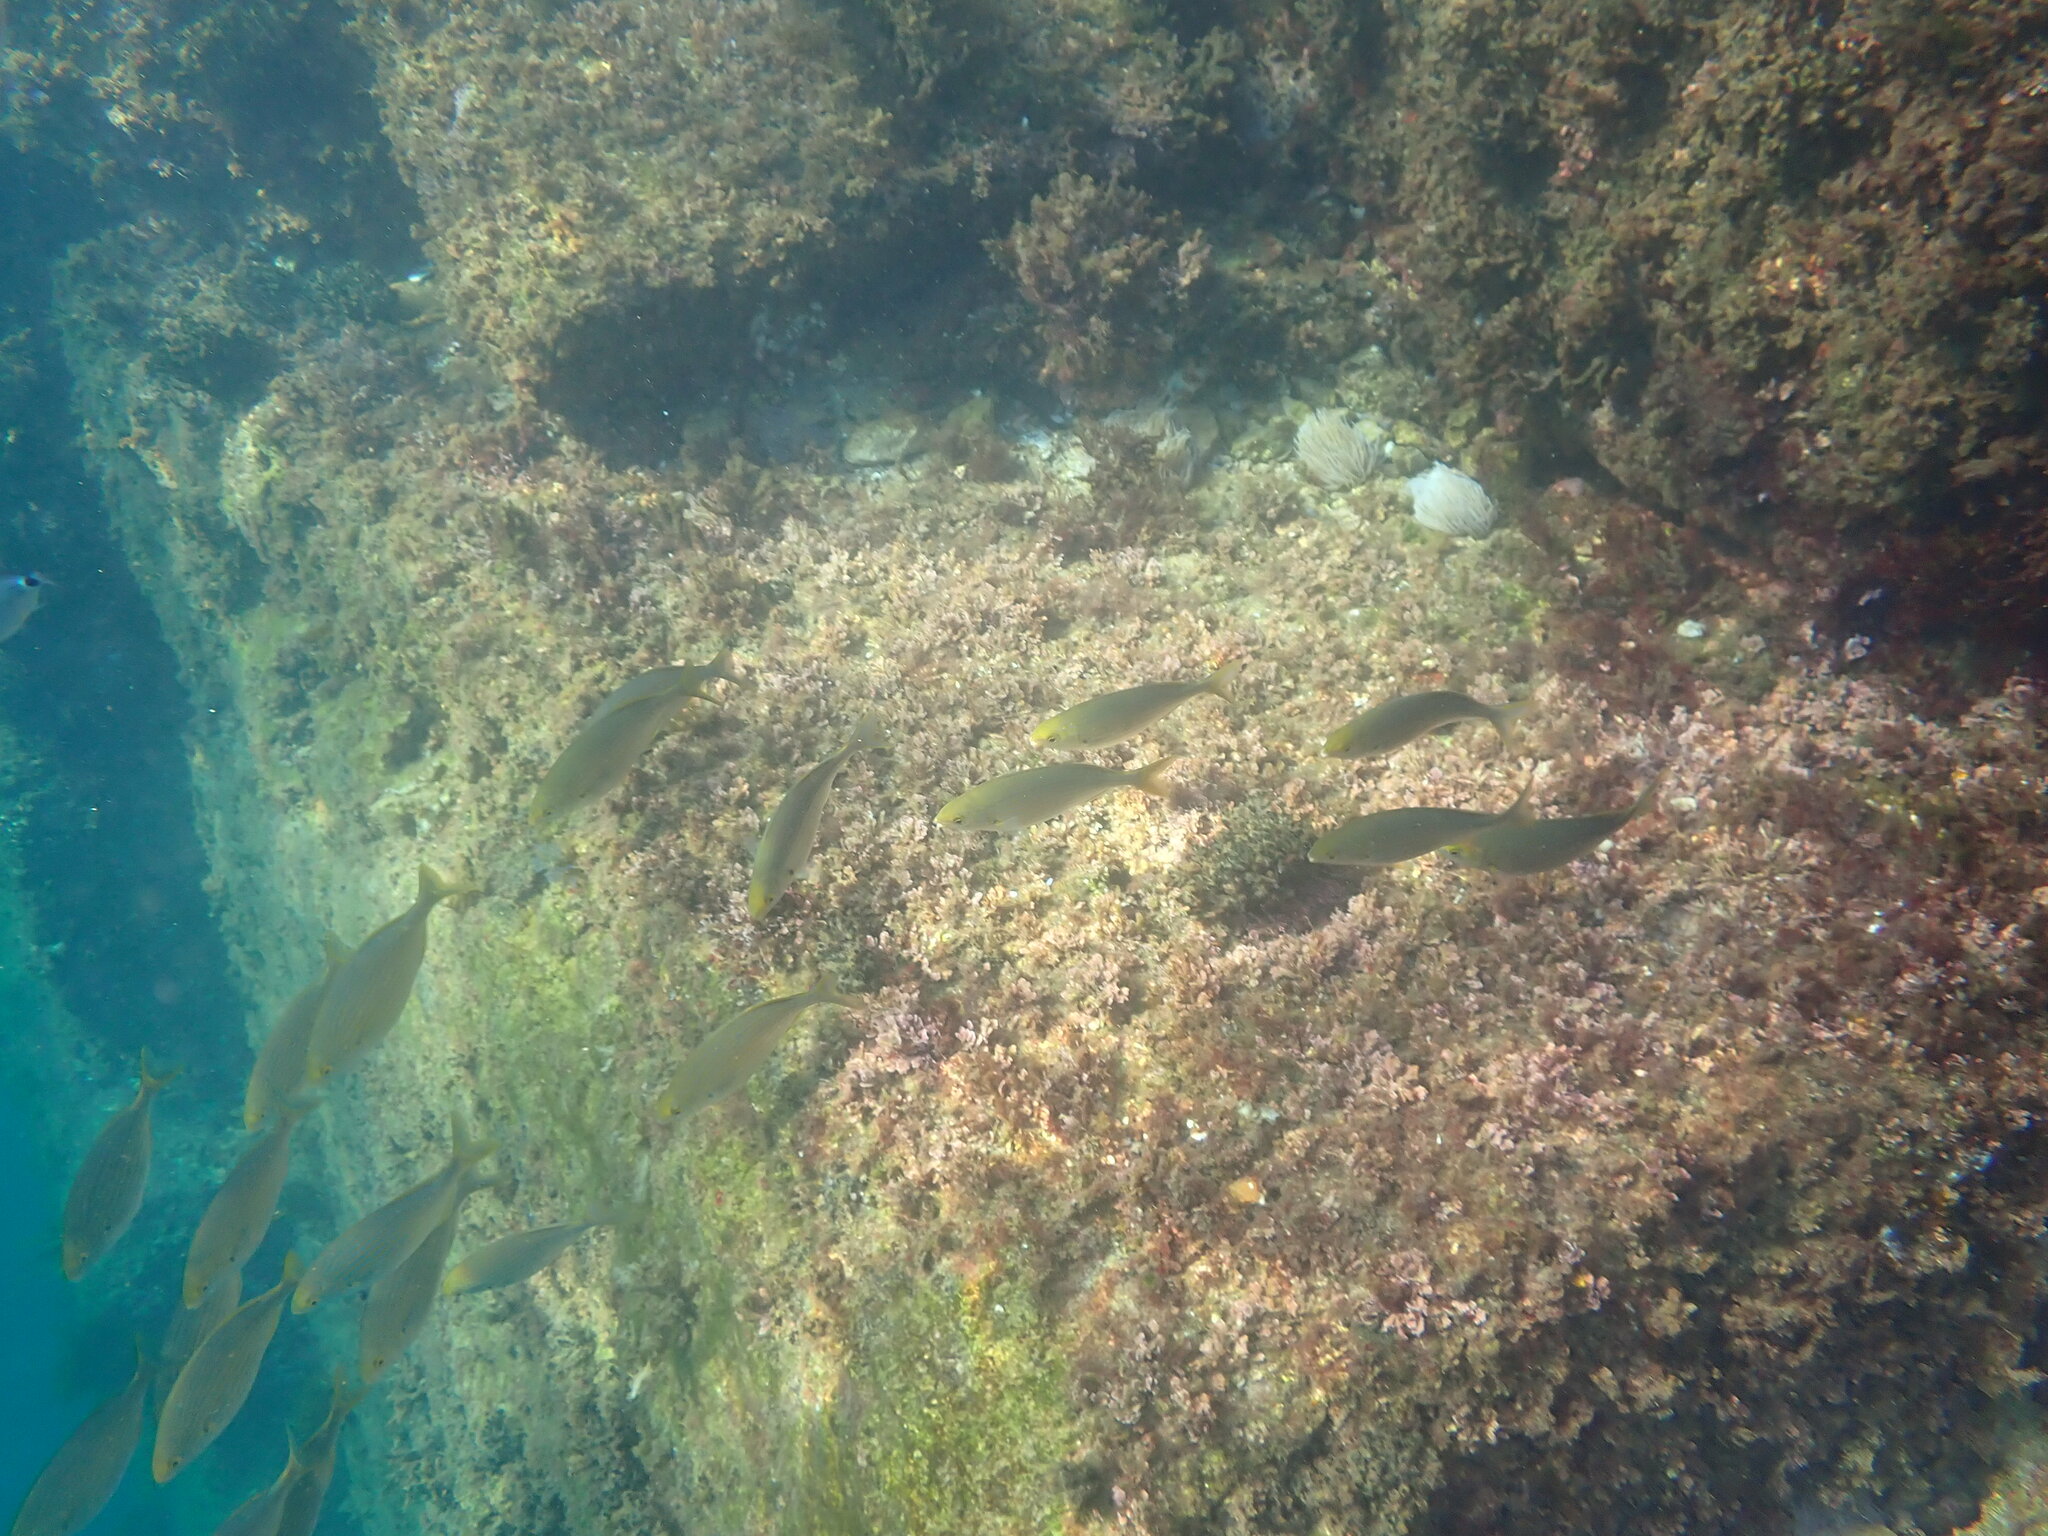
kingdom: Animalia
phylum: Chordata
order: Perciformes
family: Sparidae
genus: Sarpa
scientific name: Sarpa salpa
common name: Salema
